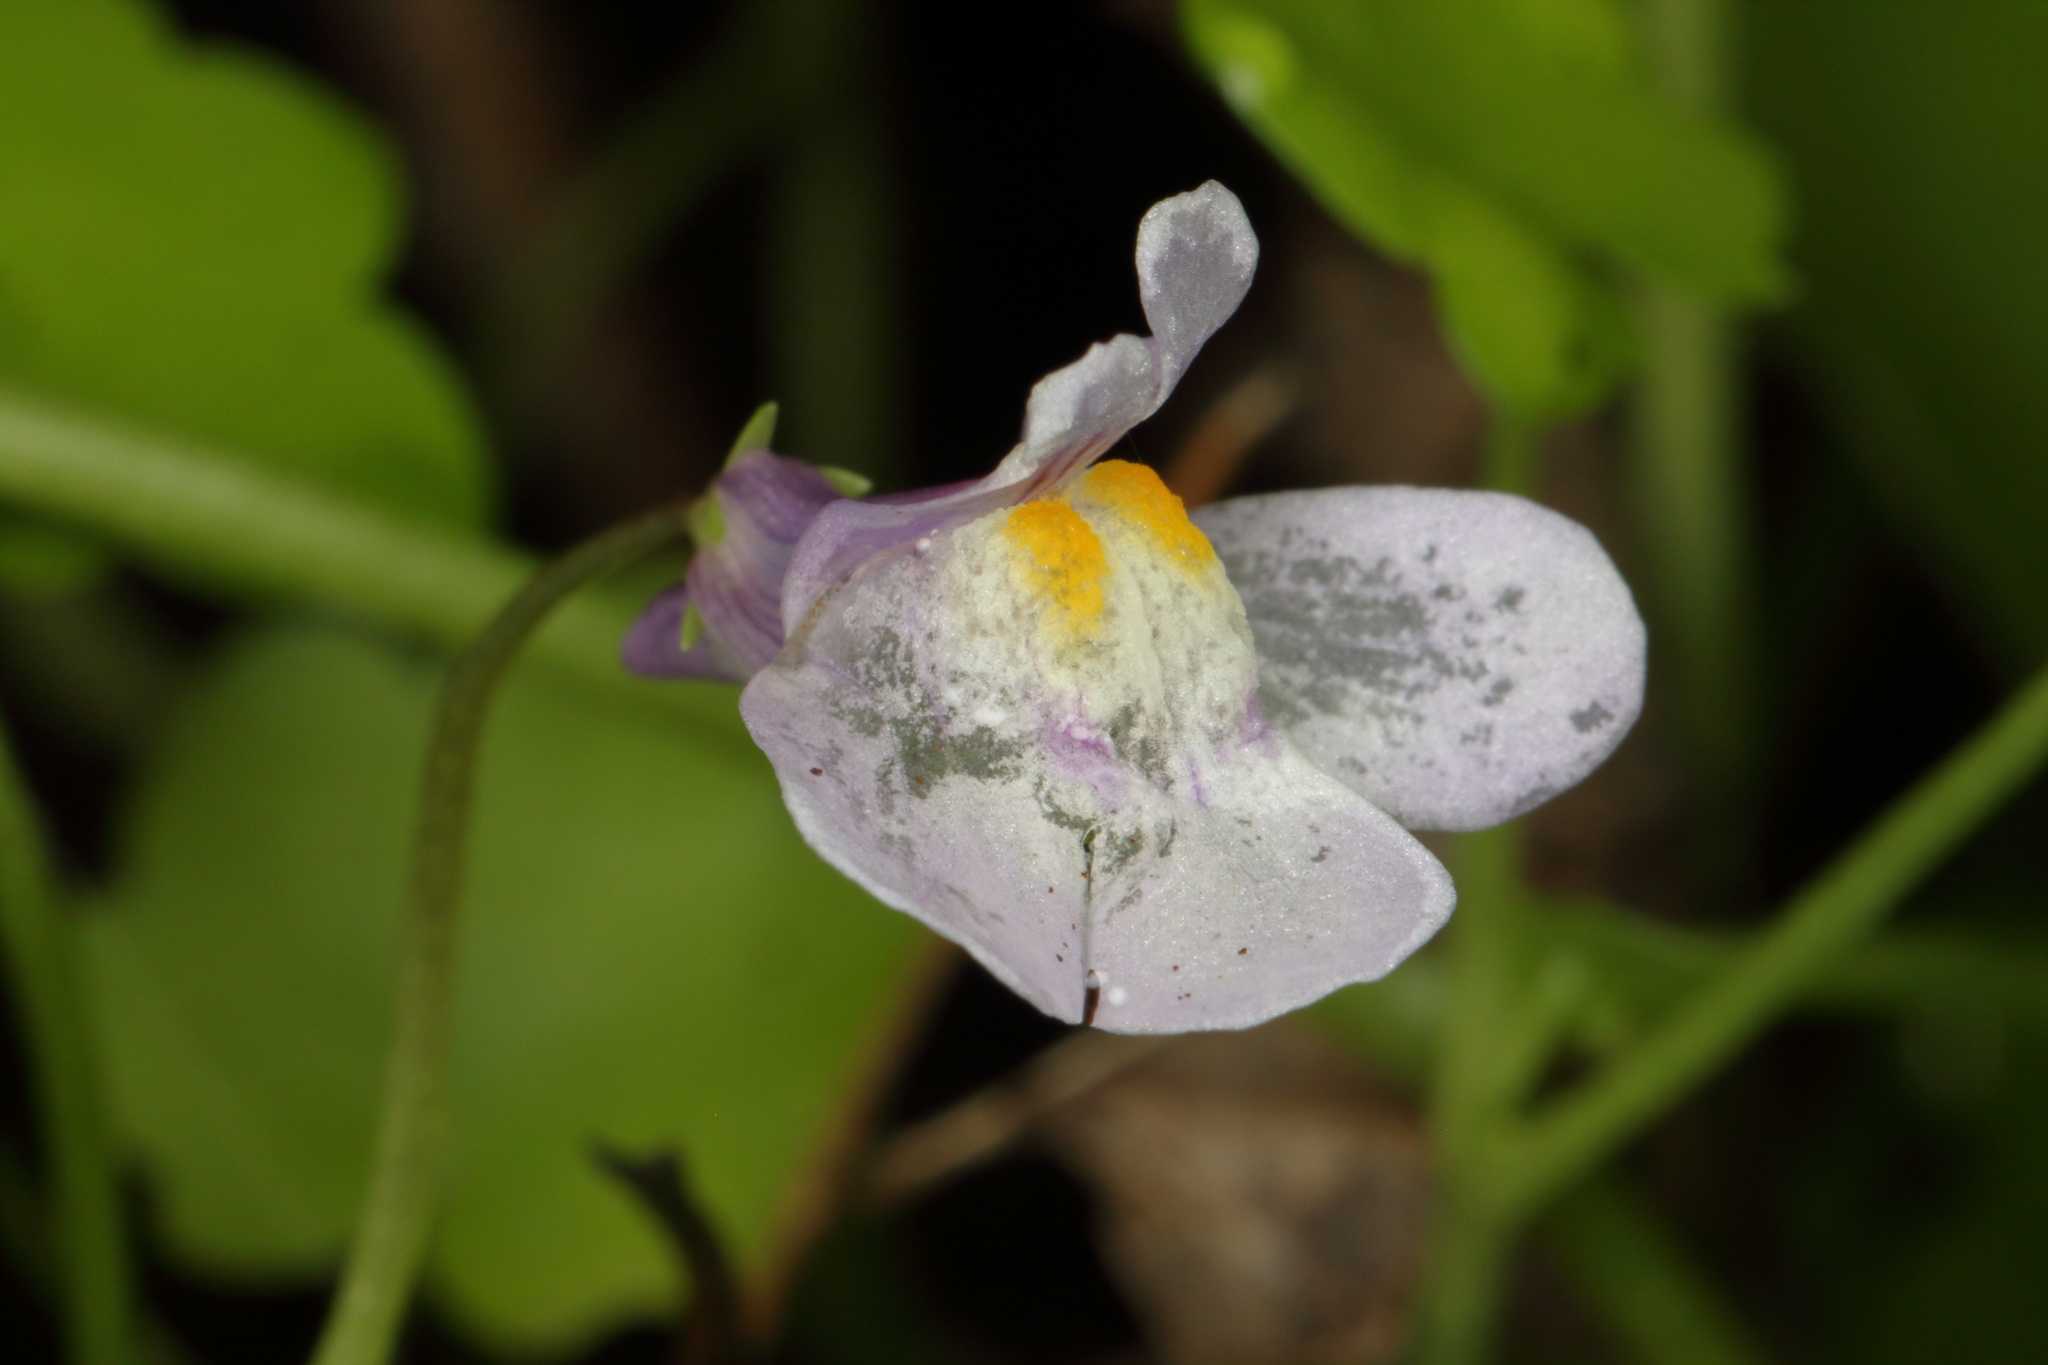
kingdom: Plantae
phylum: Tracheophyta
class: Magnoliopsida
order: Lamiales
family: Plantaginaceae
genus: Cymbalaria
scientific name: Cymbalaria muralis
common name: Ivy-leaved toadflax
